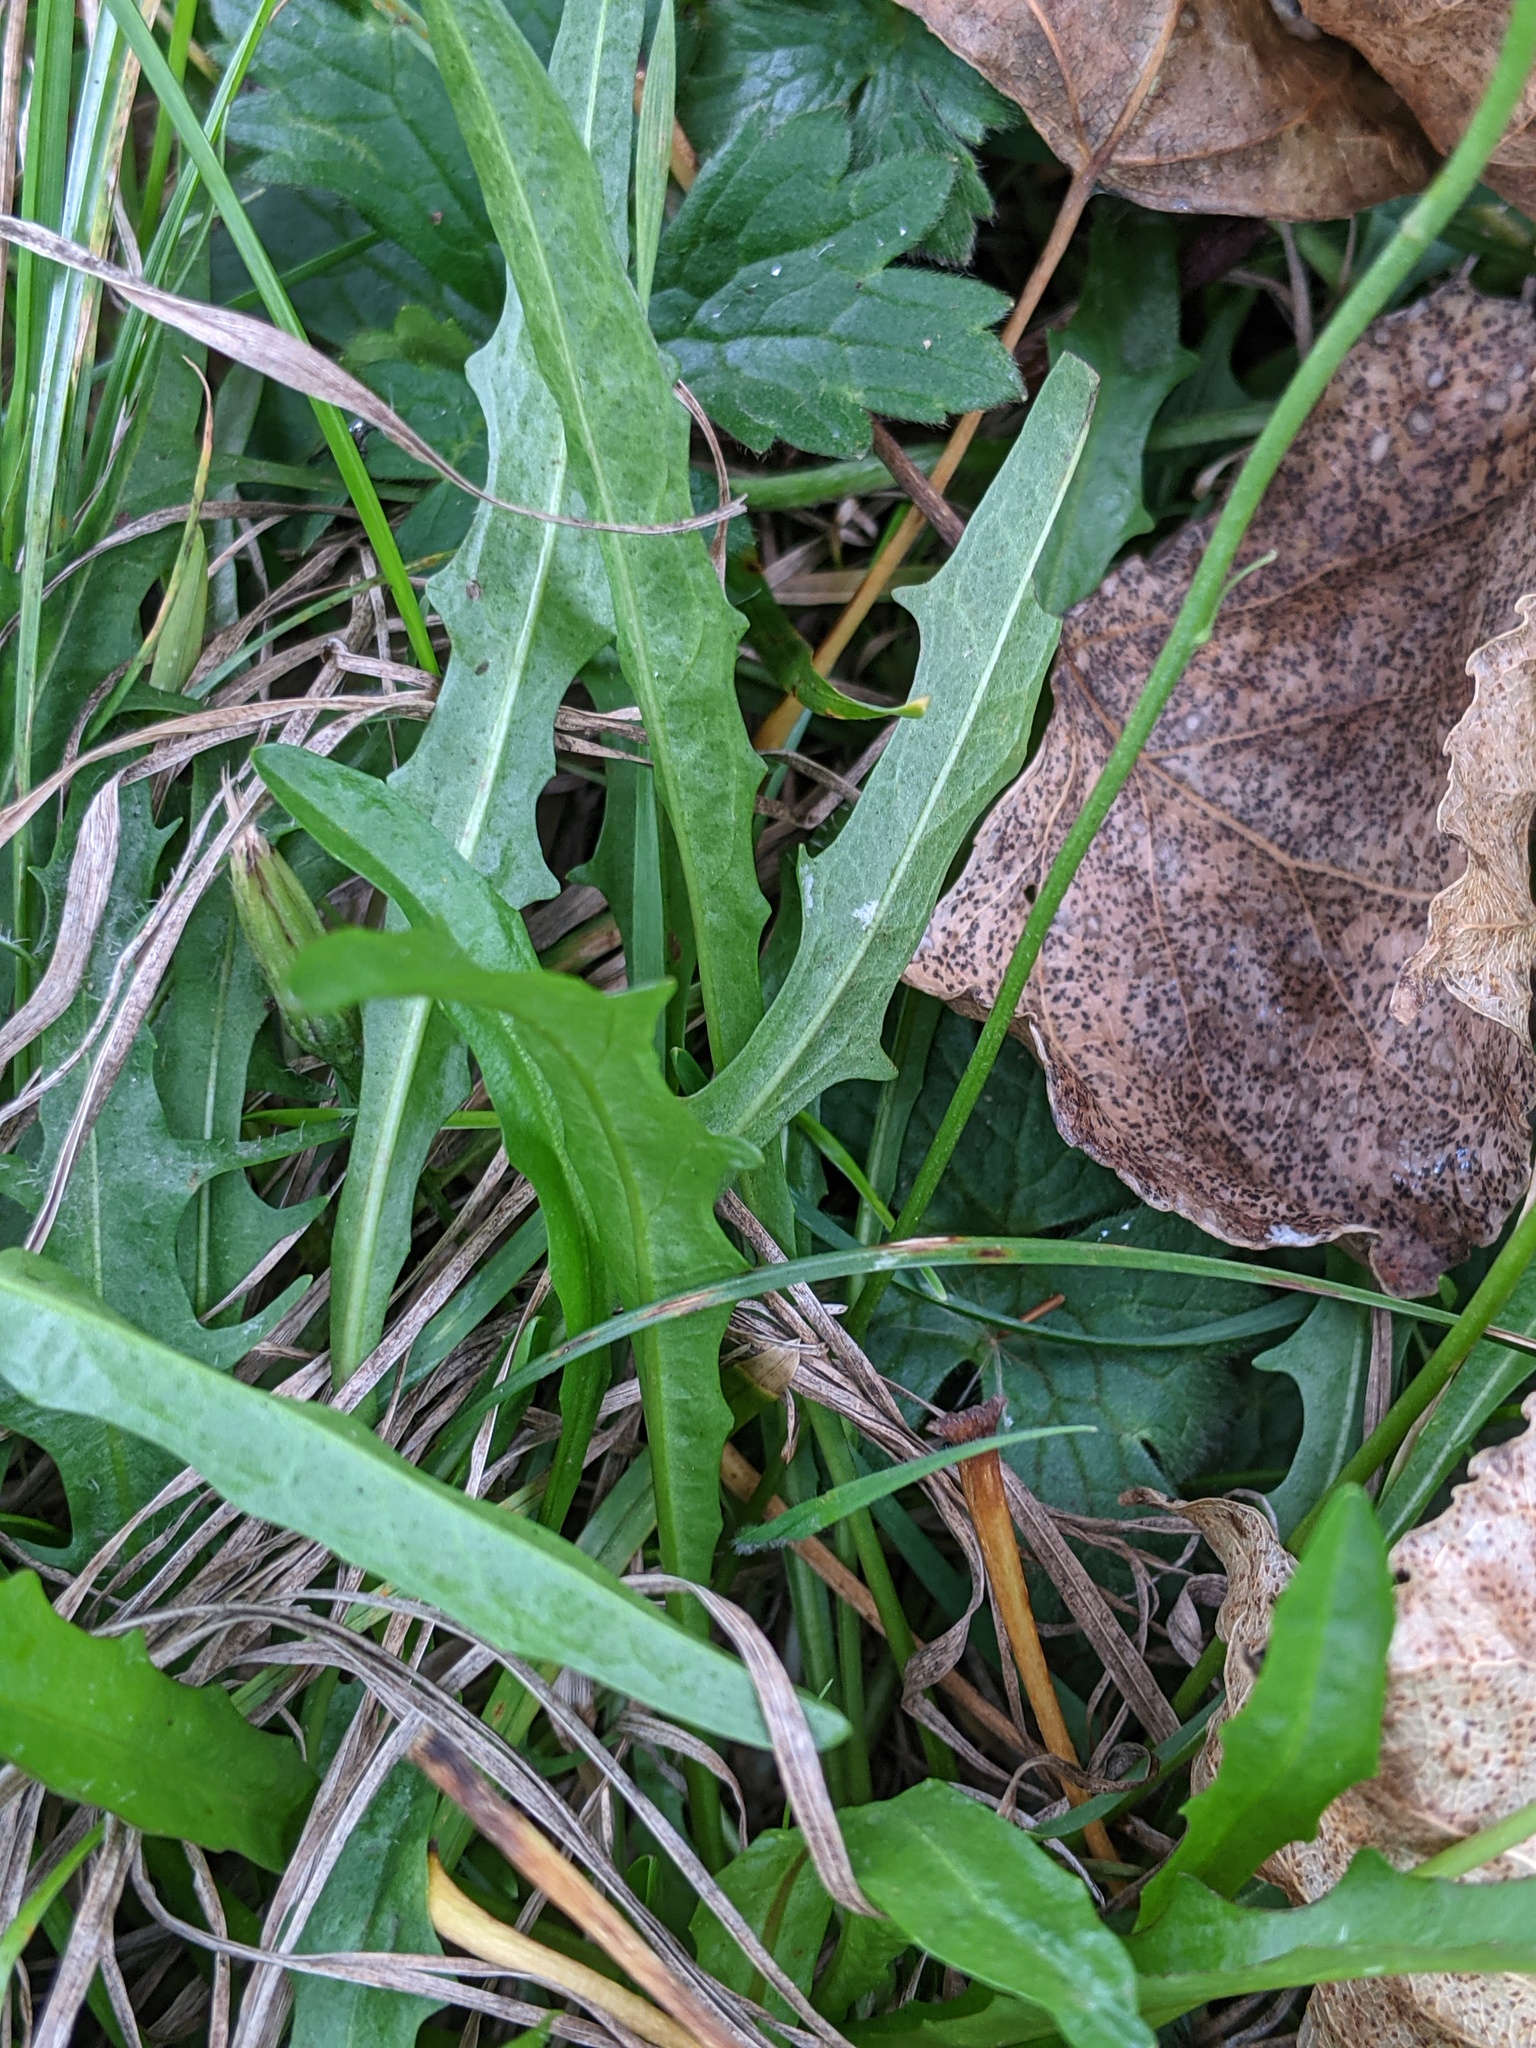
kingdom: Plantae
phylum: Tracheophyta
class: Magnoliopsida
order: Asterales
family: Asteraceae
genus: Scorzoneroides
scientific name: Scorzoneroides autumnalis
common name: Autumn hawkbit
